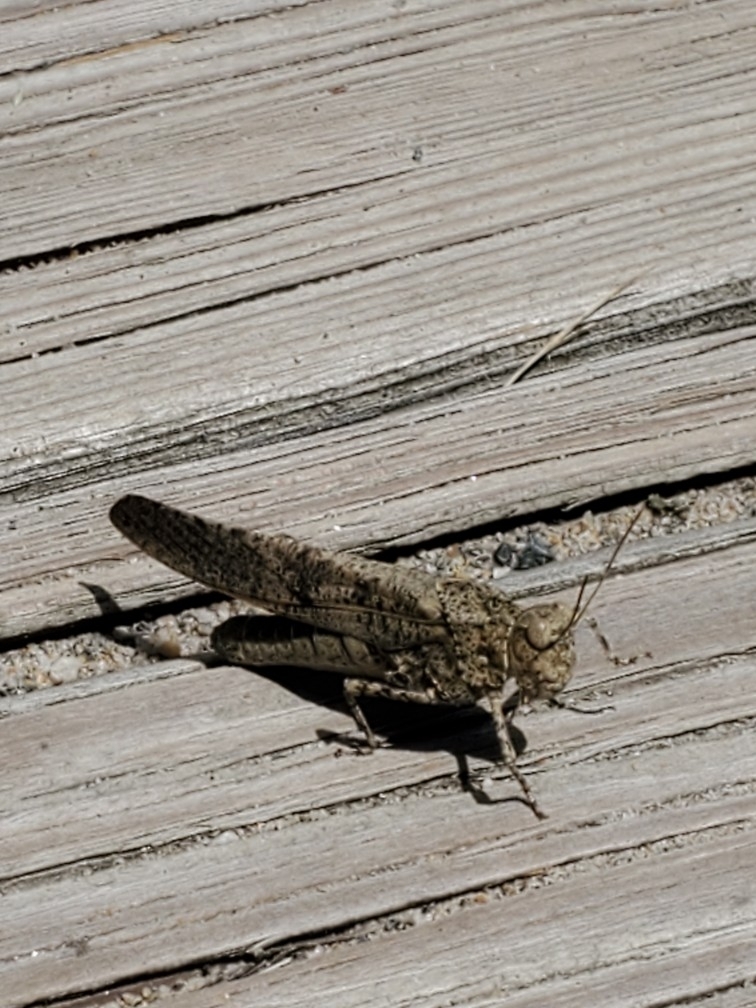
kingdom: Animalia
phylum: Arthropoda
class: Insecta
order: Orthoptera
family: Acrididae
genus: Dissosteira
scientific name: Dissosteira carolina
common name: Carolina grasshopper
